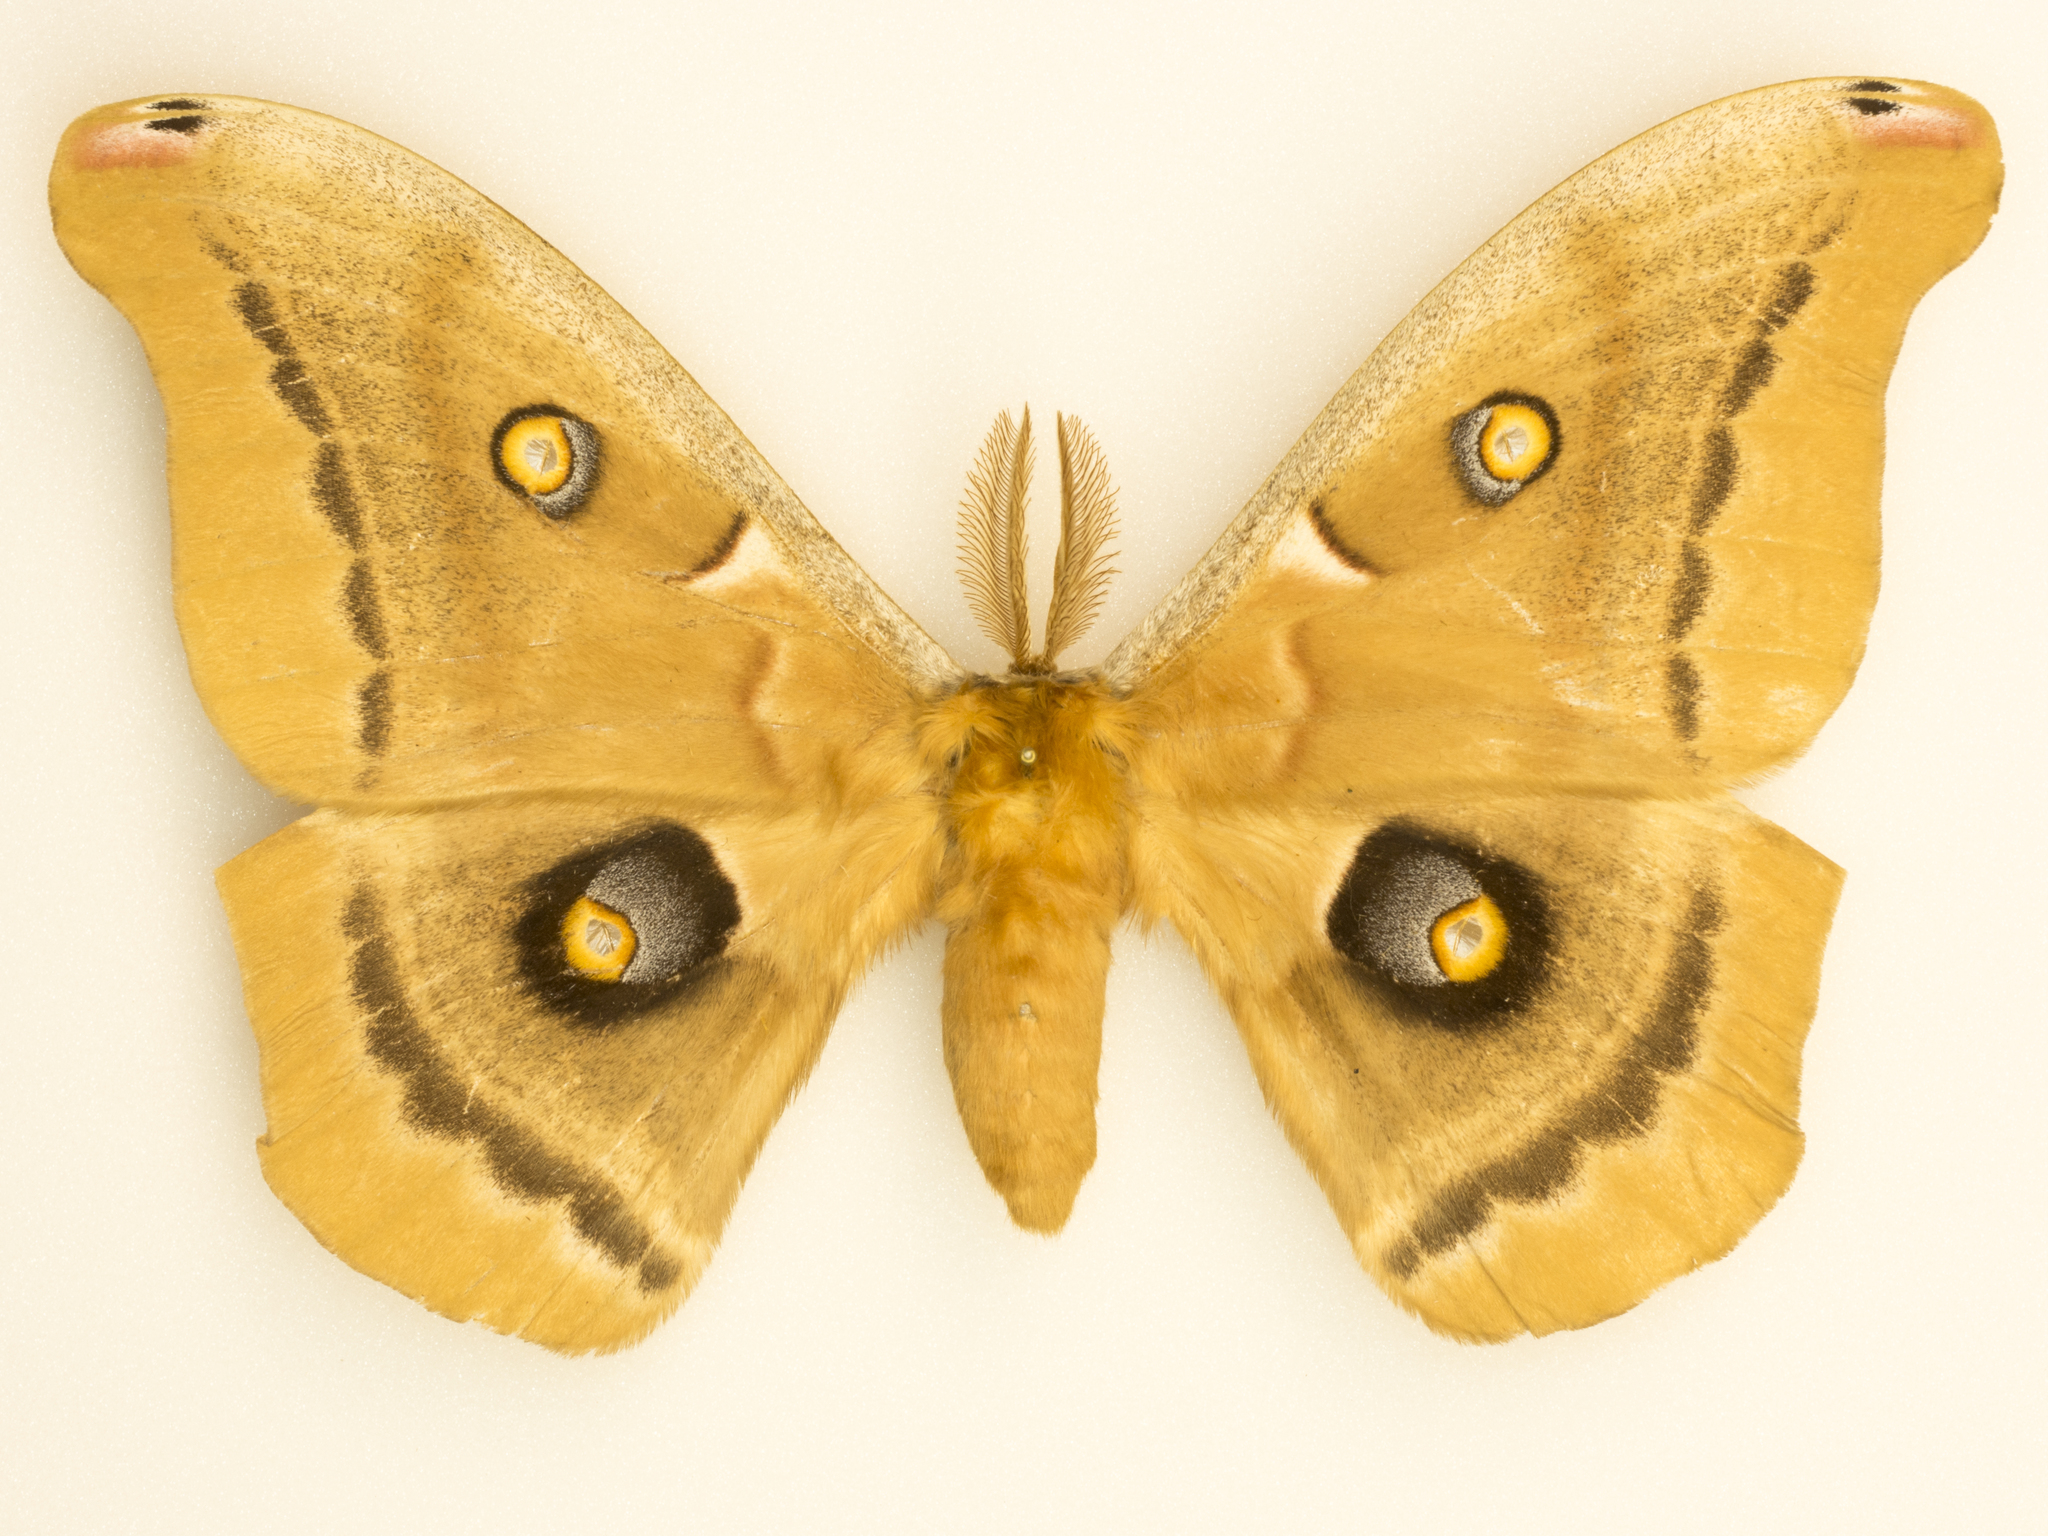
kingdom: Animalia
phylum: Arthropoda
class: Insecta
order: Lepidoptera
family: Saturniidae
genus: Antheraea
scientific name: Antheraea oculea
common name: Arizona polyphemus moth
